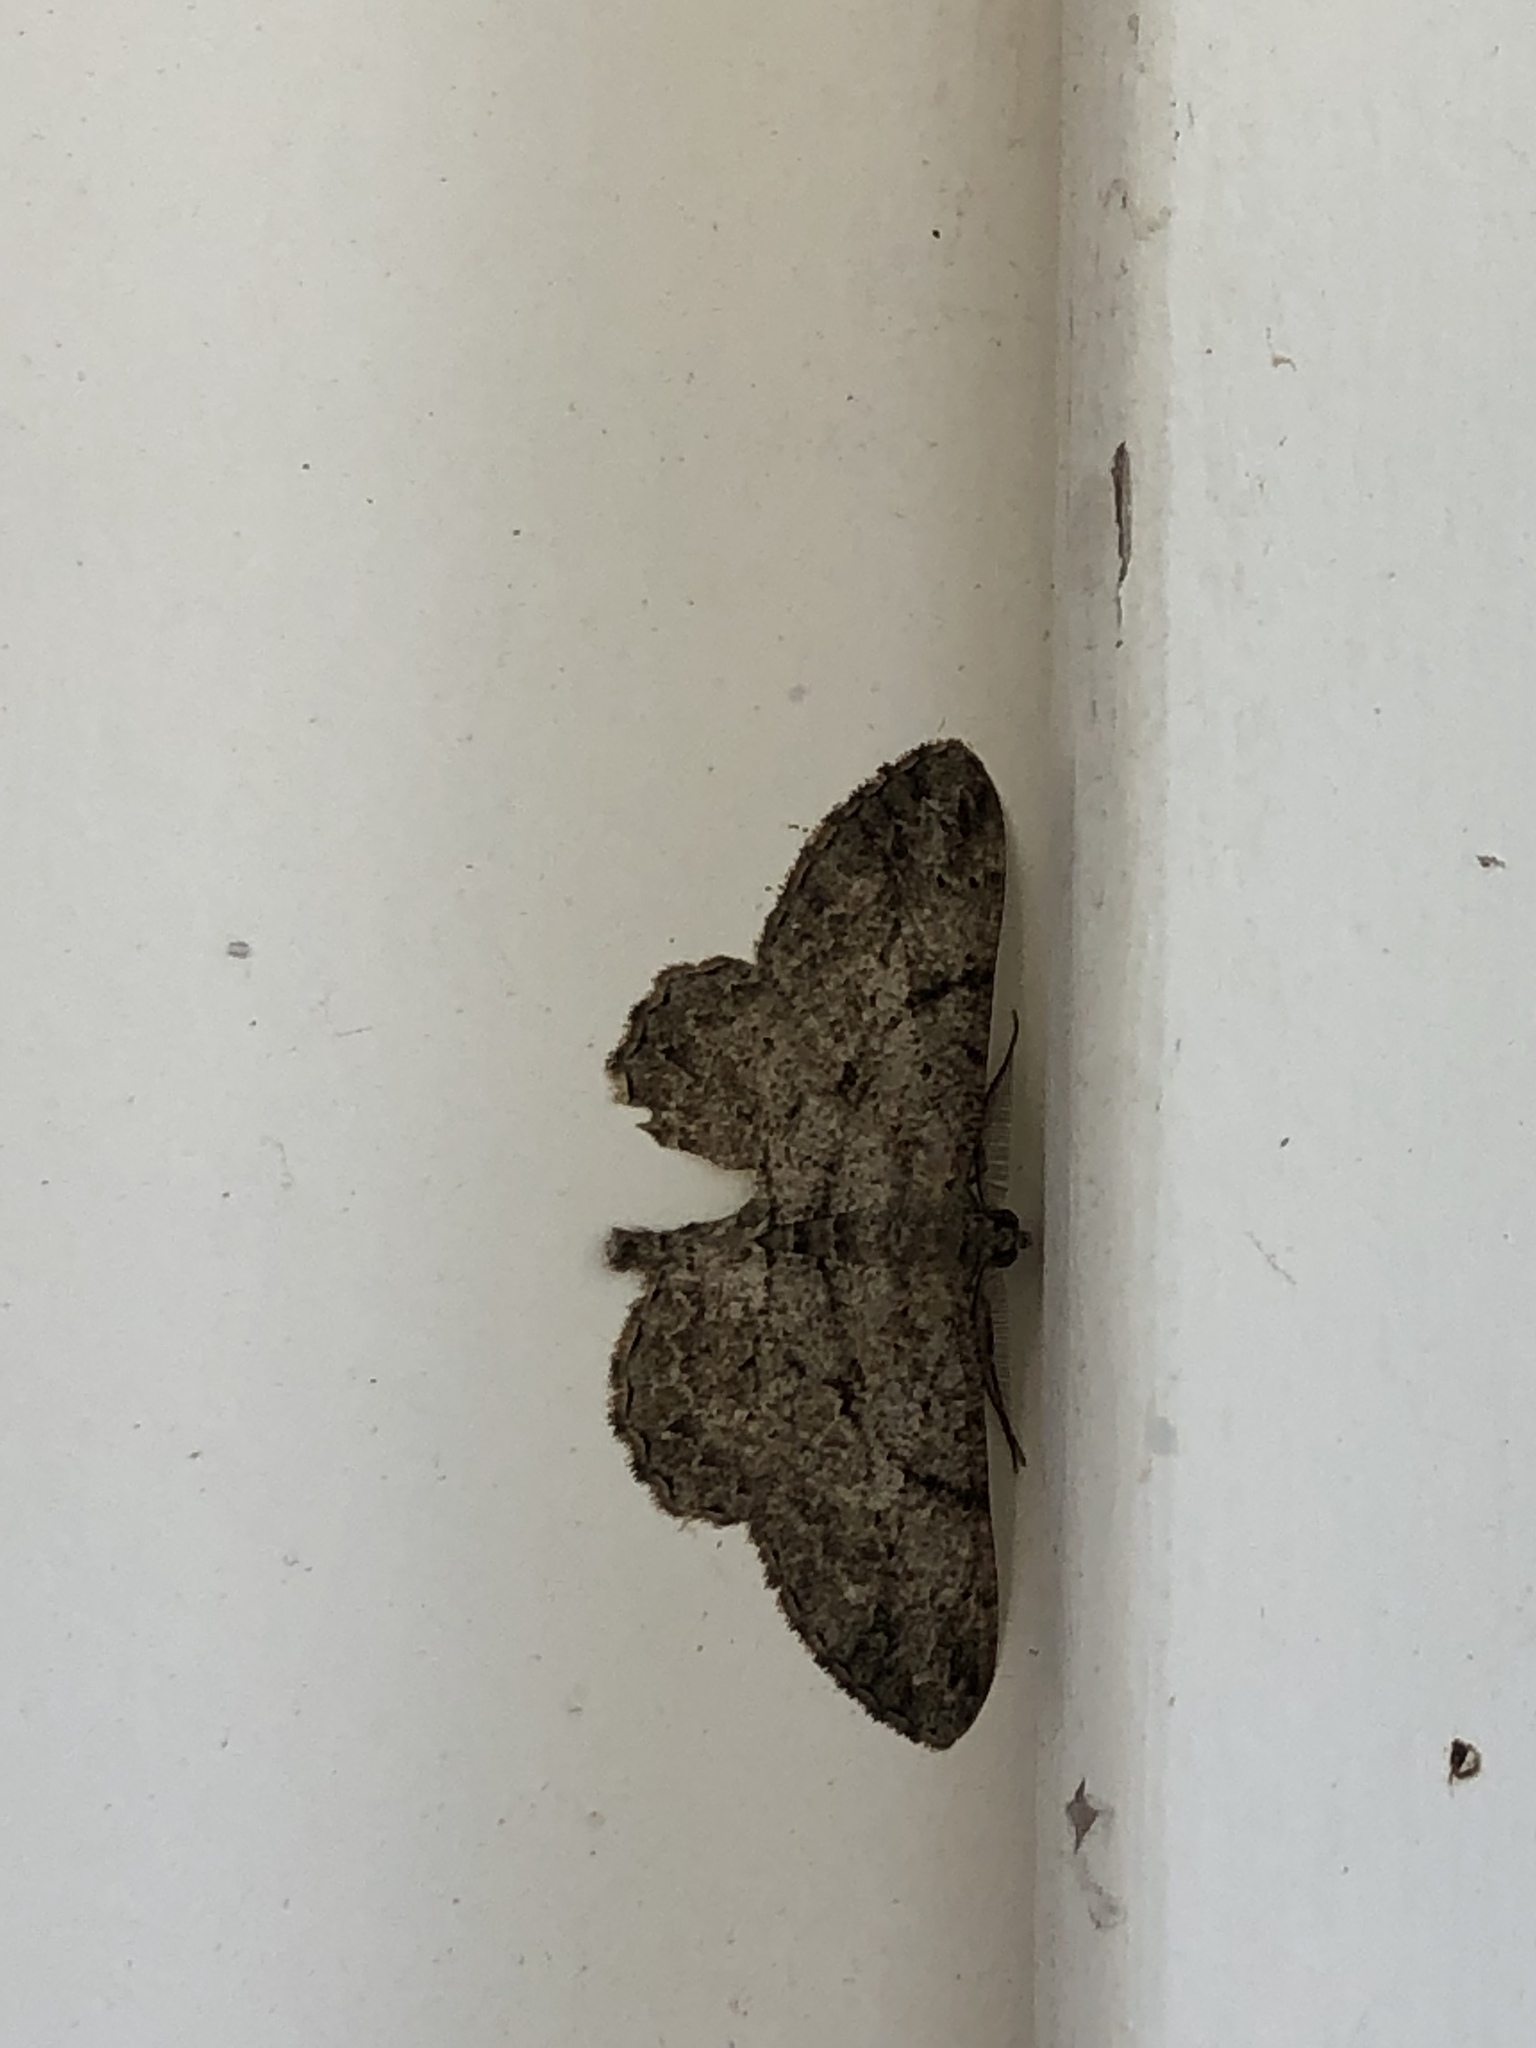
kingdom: Animalia
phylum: Arthropoda
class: Insecta
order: Lepidoptera
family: Geometridae
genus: Peribatodes
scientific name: Peribatodes rhomboidaria
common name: Willow beauty
